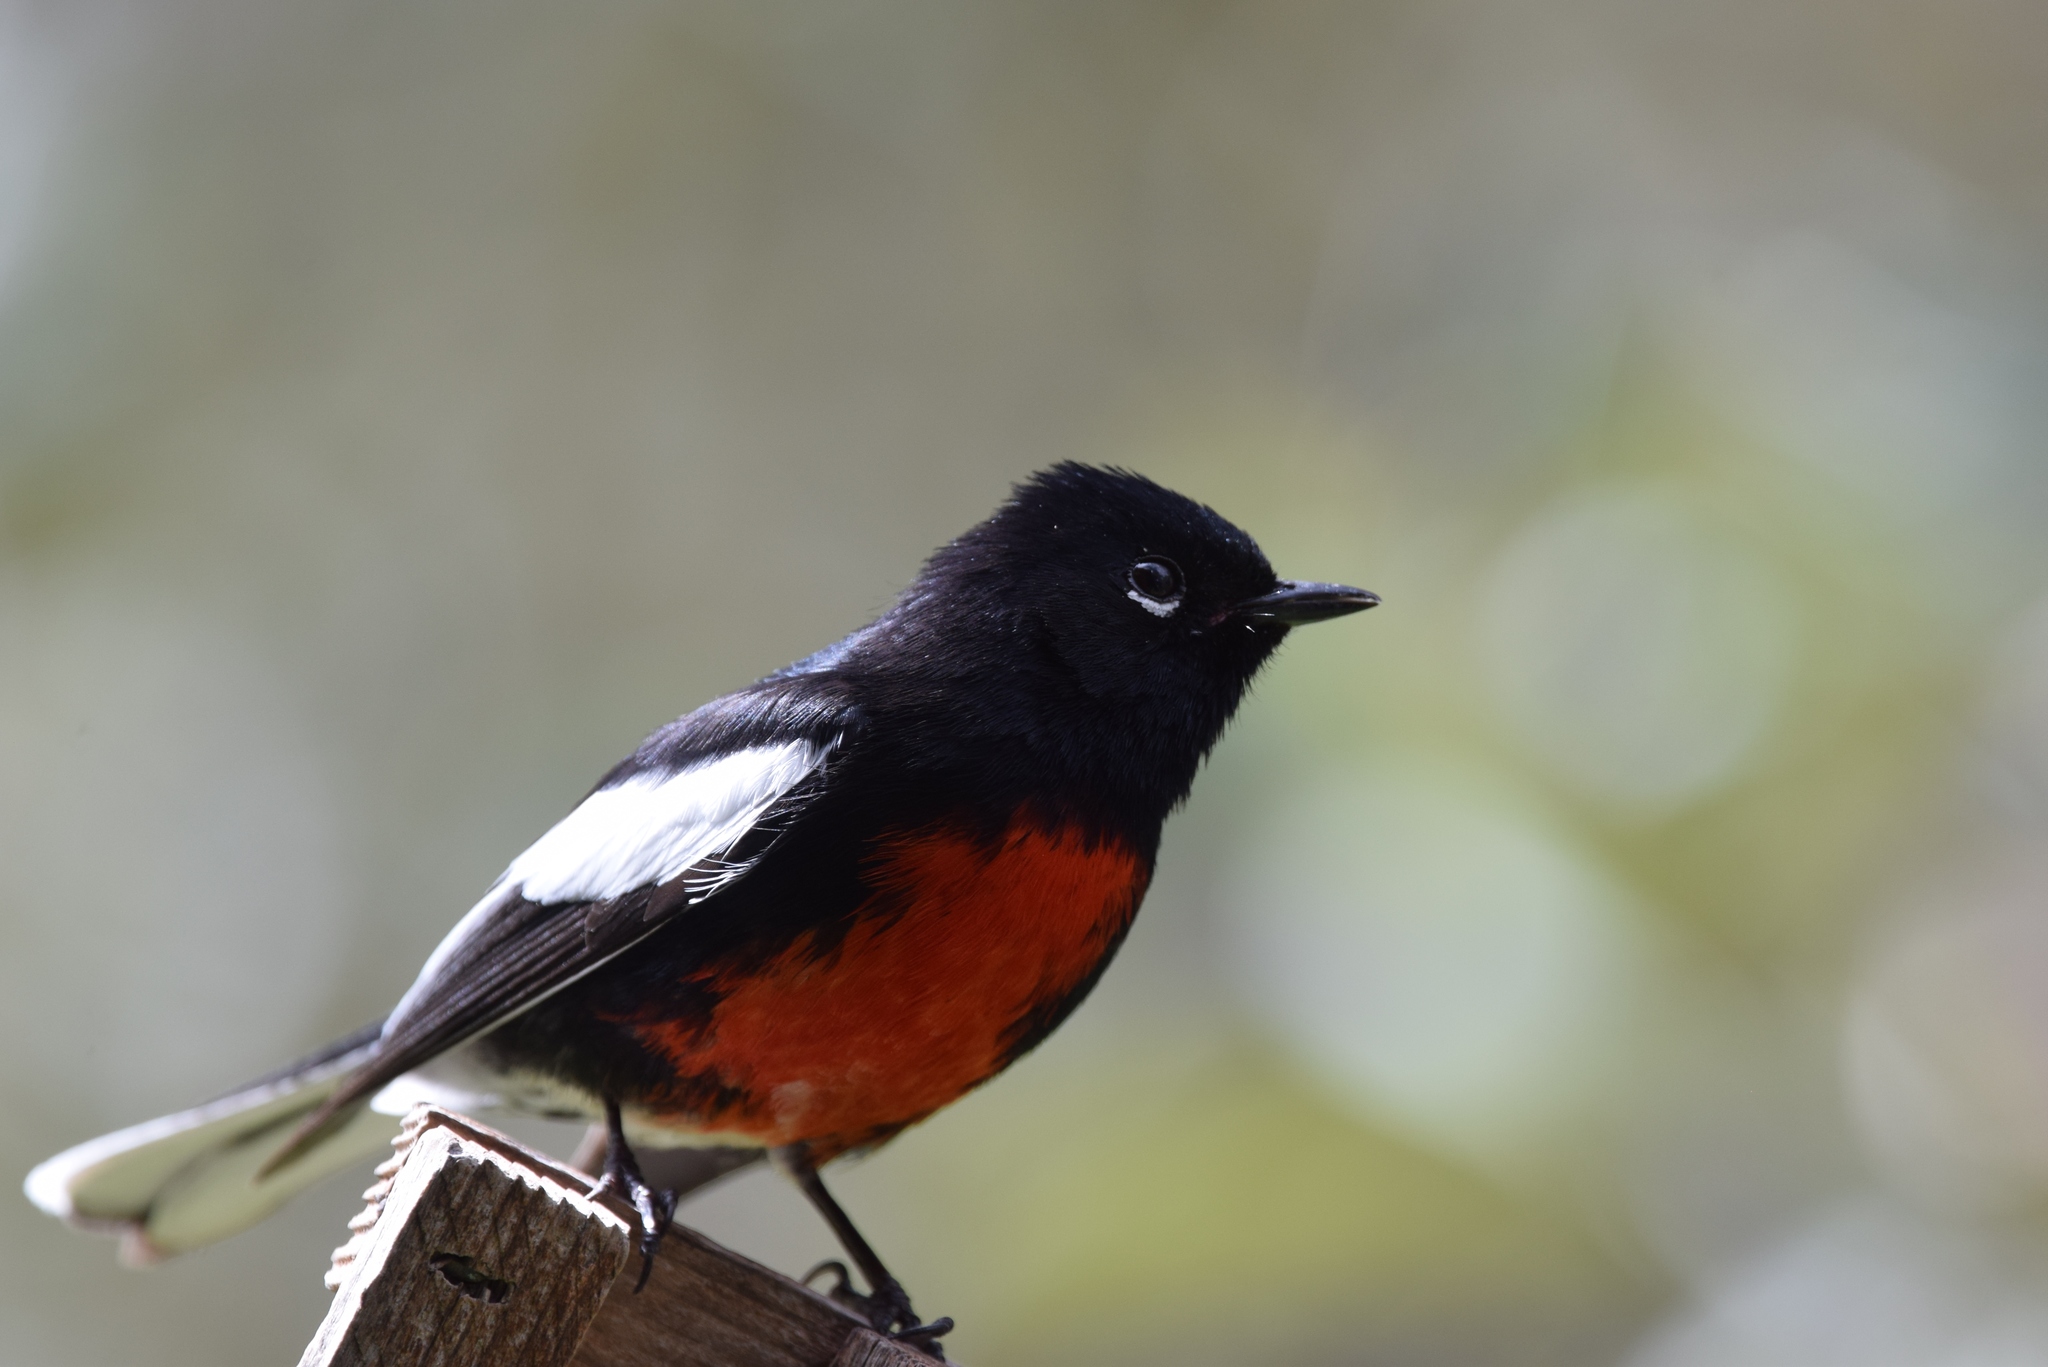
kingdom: Animalia
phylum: Chordata
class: Aves
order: Passeriformes
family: Parulidae
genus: Myioborus
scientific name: Myioborus pictus
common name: Painted whitestart
